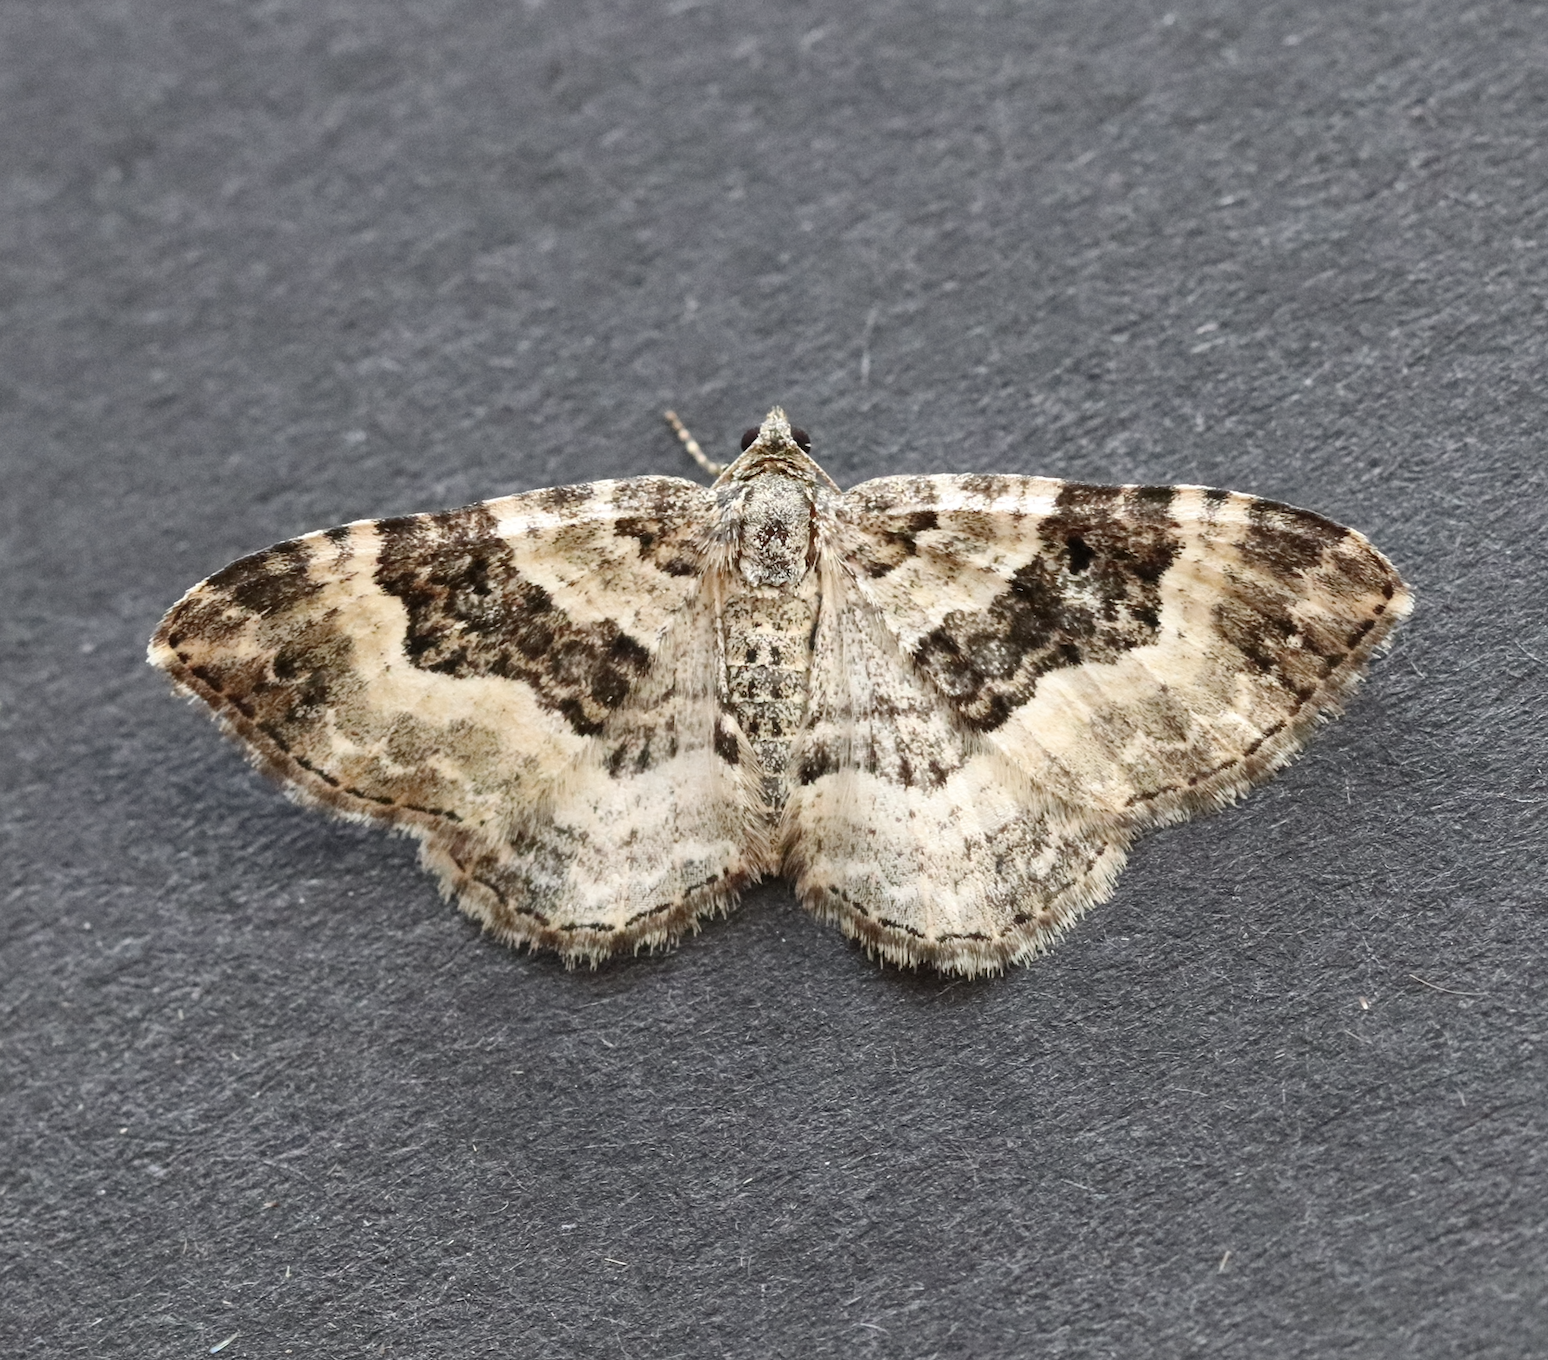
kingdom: Animalia
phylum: Arthropoda
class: Insecta
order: Lepidoptera
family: Geometridae
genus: Epirrhoe
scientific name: Epirrhoe alternata
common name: Common carpet
